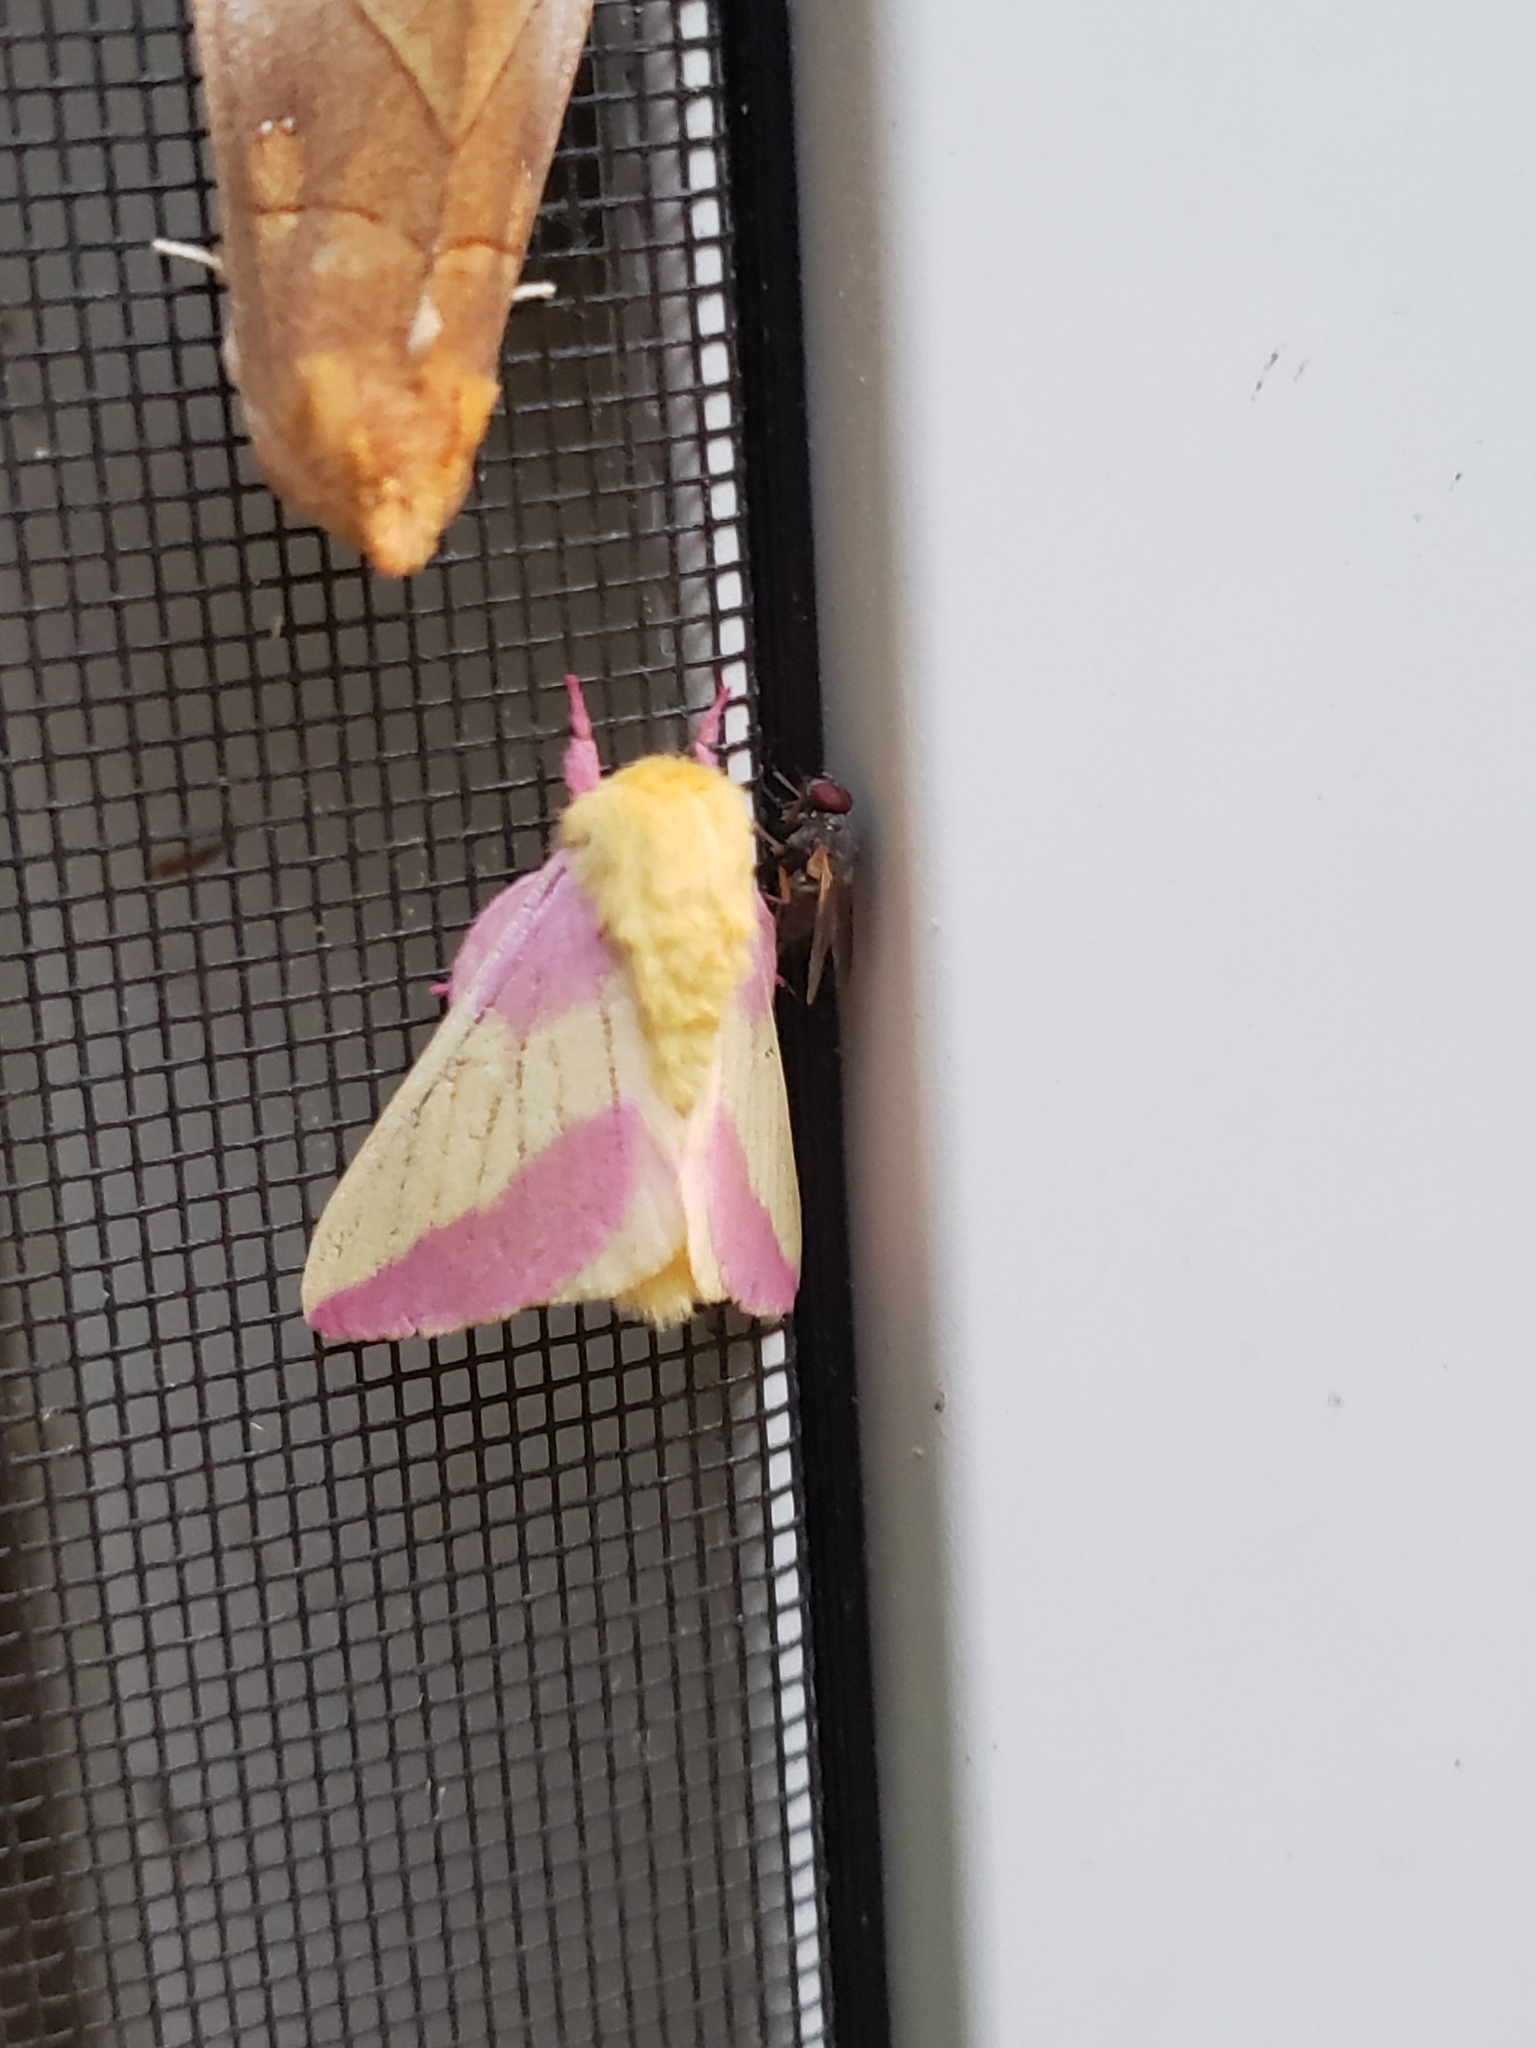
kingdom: Animalia
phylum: Arthropoda
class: Insecta
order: Lepidoptera
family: Saturniidae
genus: Dryocampa
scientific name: Dryocampa rubicunda
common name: Rosy maple moth
